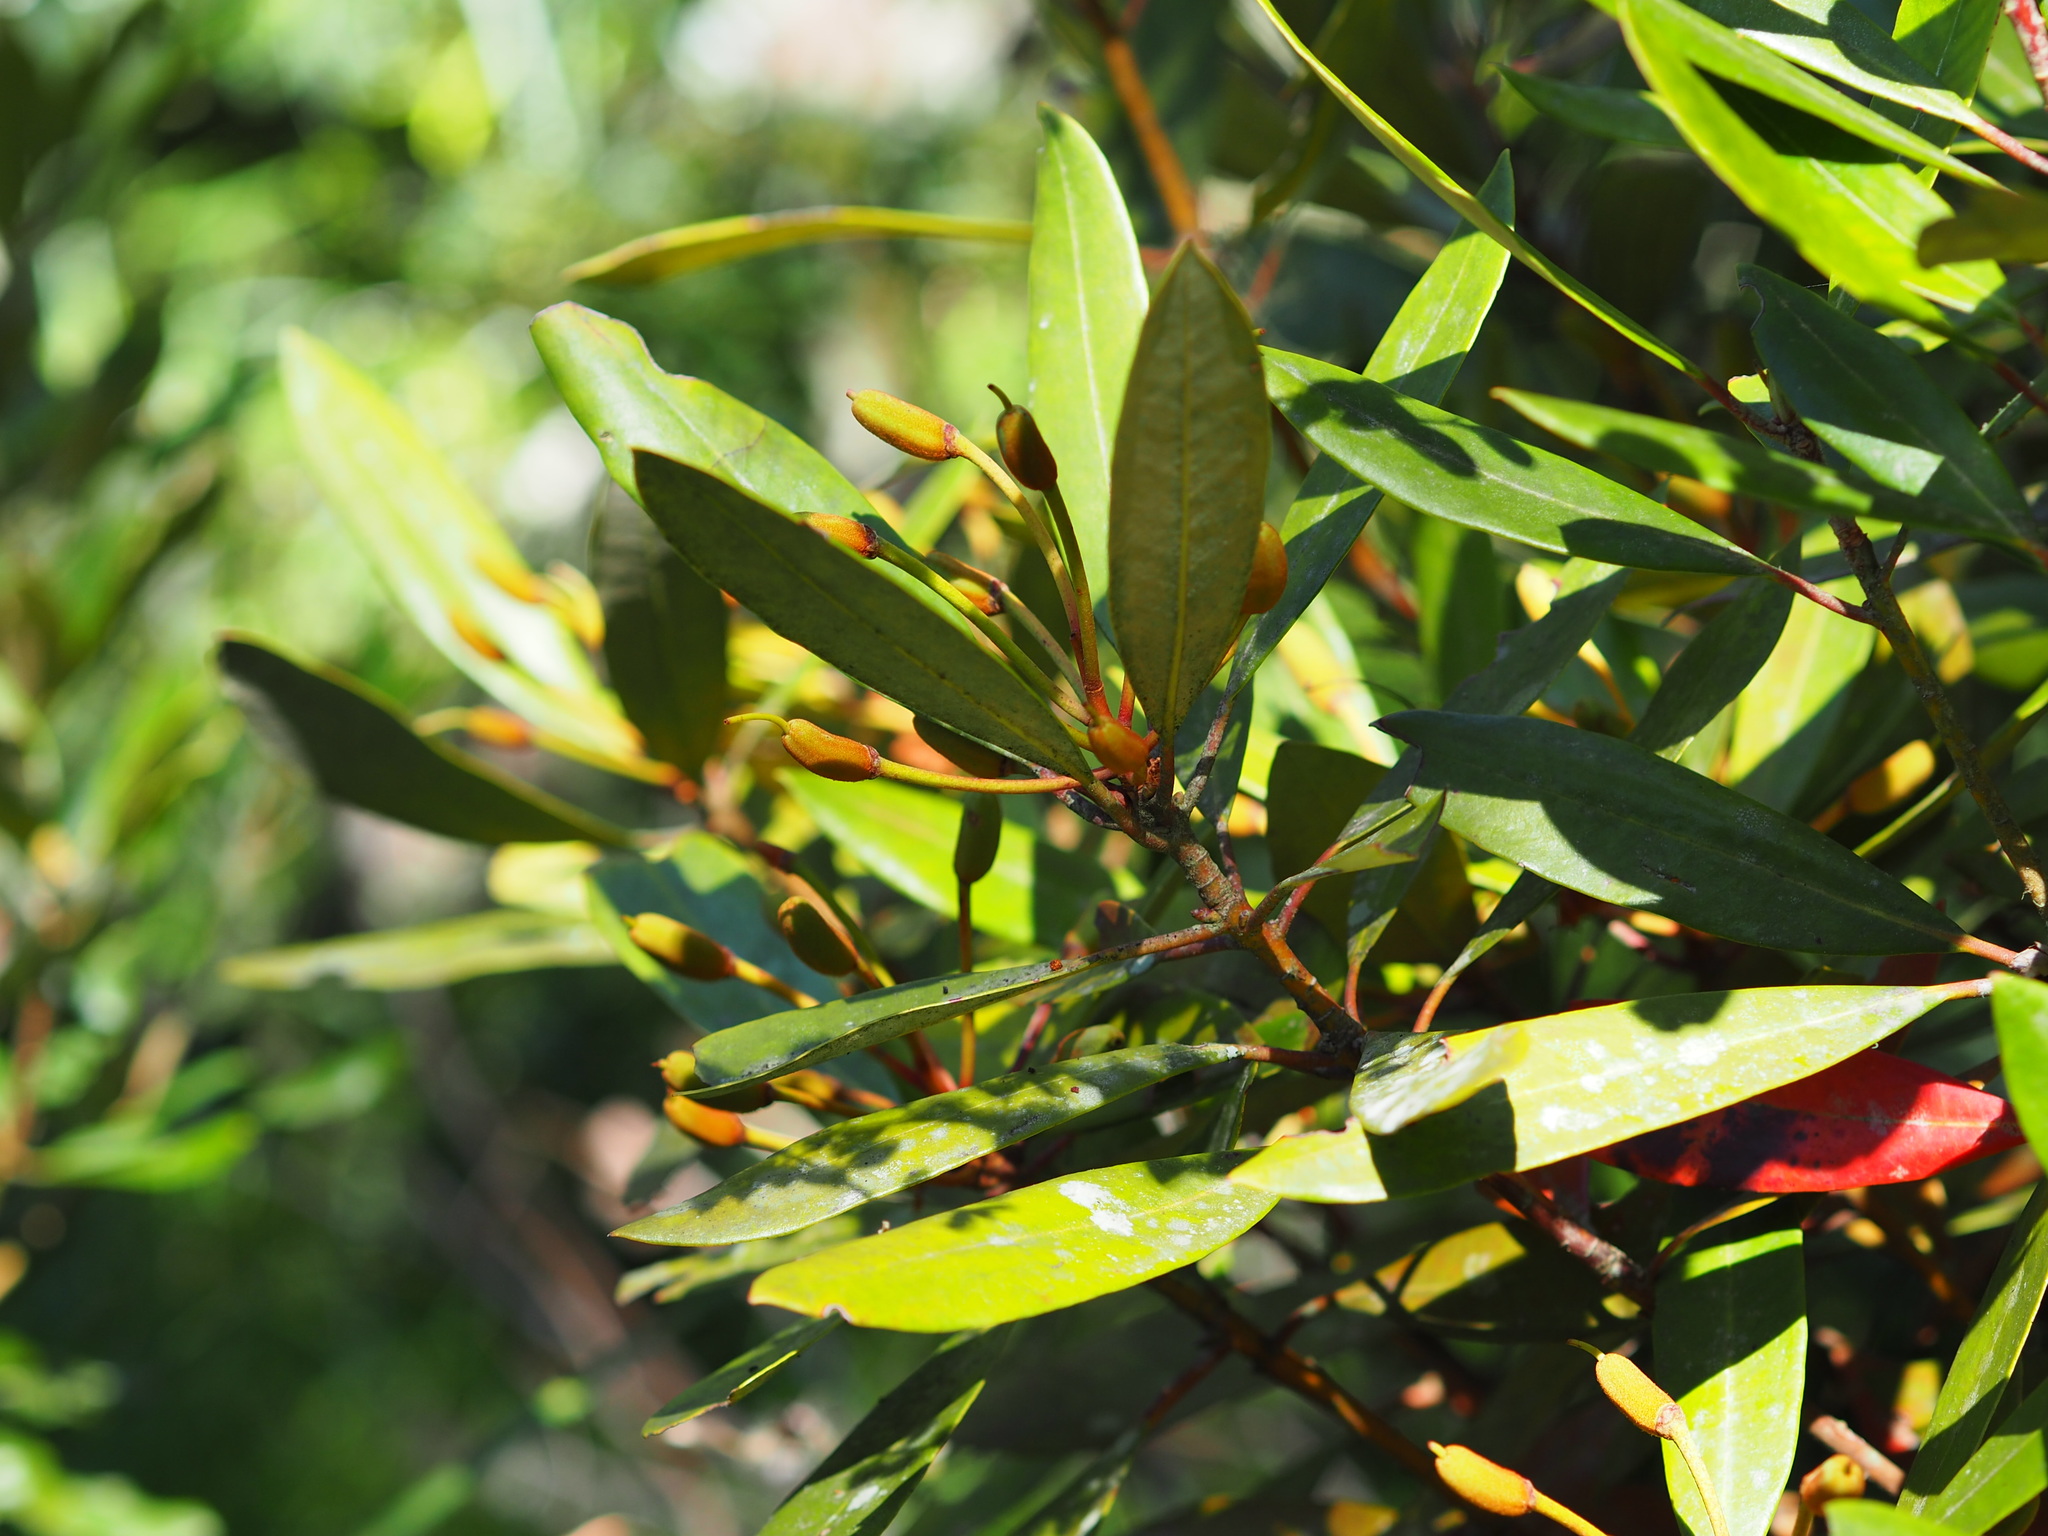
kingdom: Plantae
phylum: Tracheophyta
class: Magnoliopsida
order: Ericales
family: Ericaceae
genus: Rhododendron
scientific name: Rhododendron formosanum
